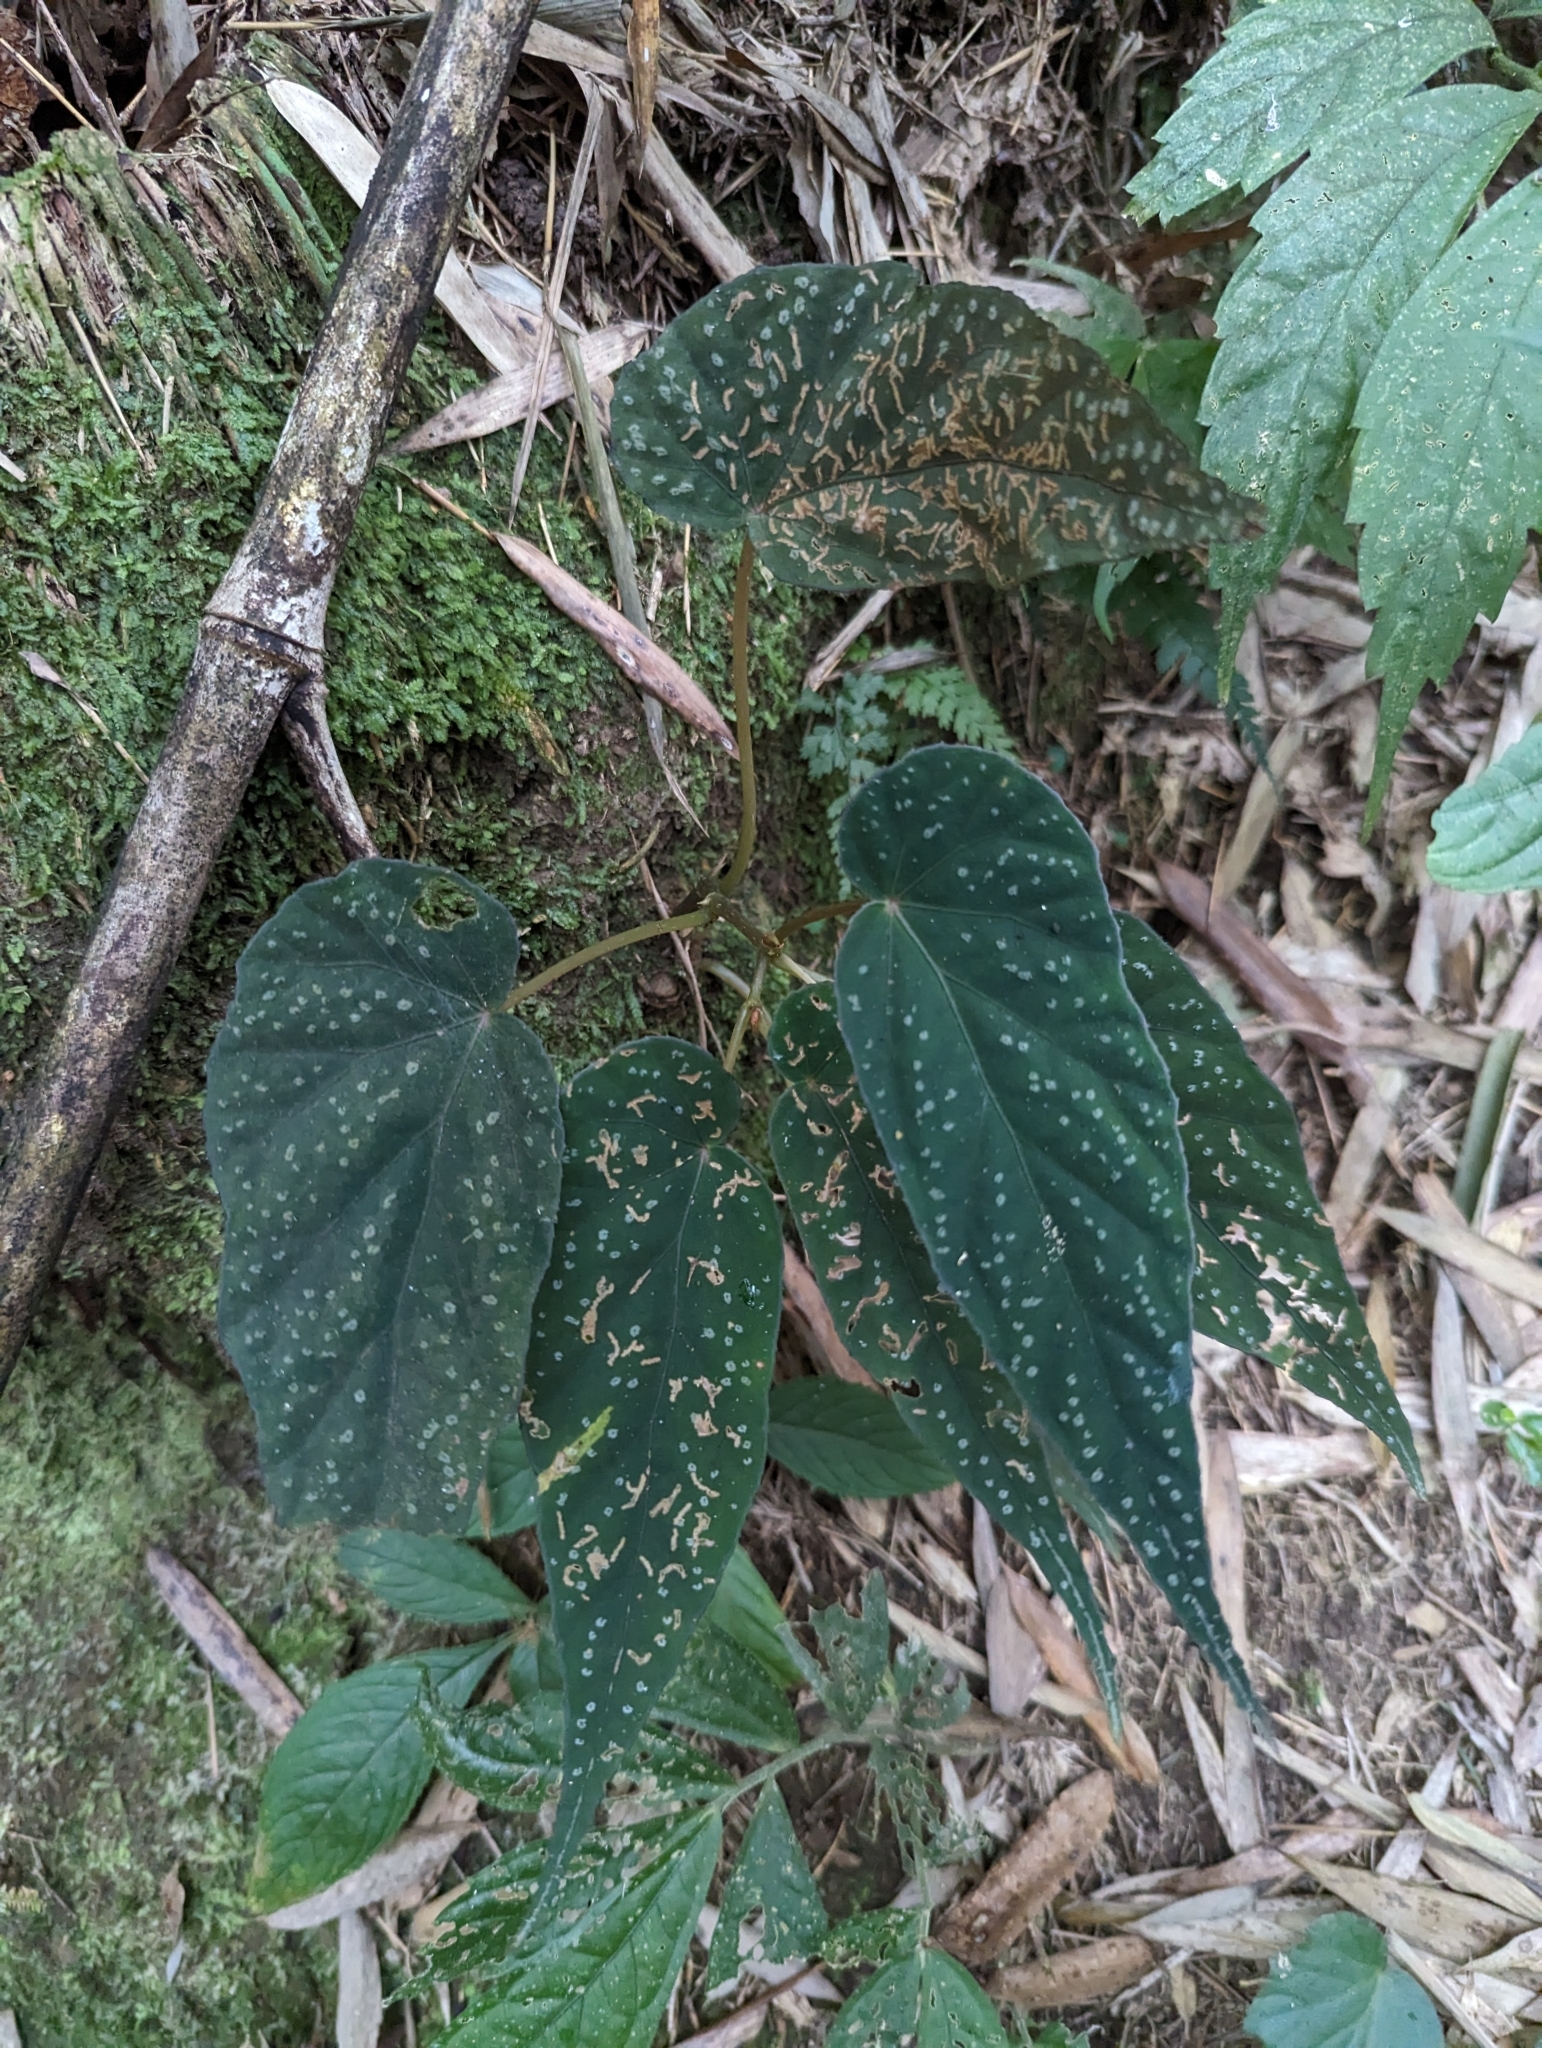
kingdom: Plantae
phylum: Tracheophyta
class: Magnoliopsida
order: Cucurbitales
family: Begoniaceae
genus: Begonia
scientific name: Begonia lukuana
